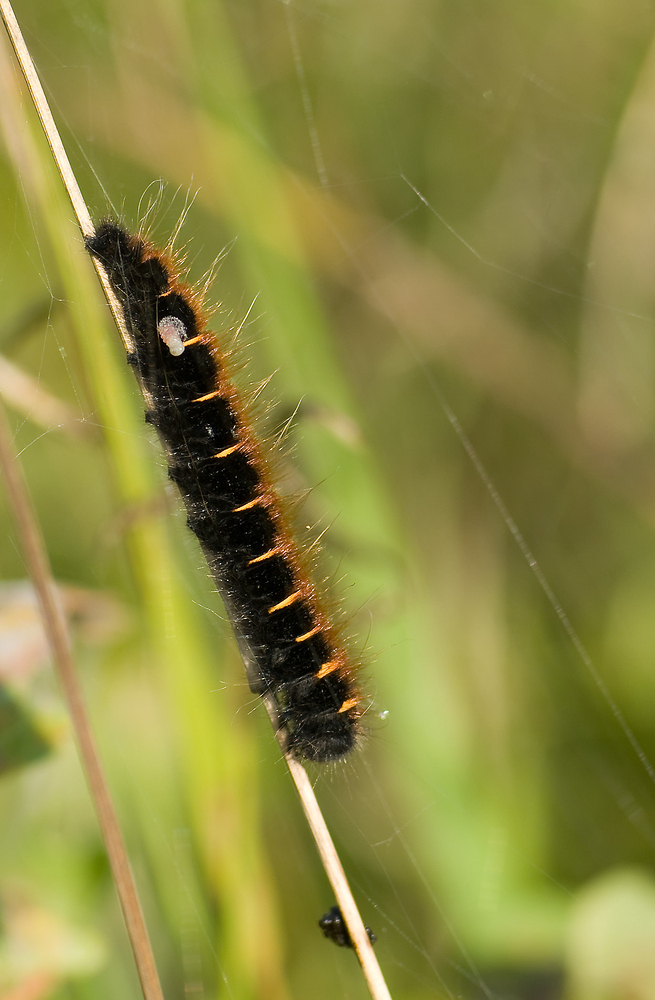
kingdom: Animalia
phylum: Arthropoda
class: Insecta
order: Lepidoptera
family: Lasiocampidae
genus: Macrothylacia
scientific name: Macrothylacia rubi
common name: Fox moth
